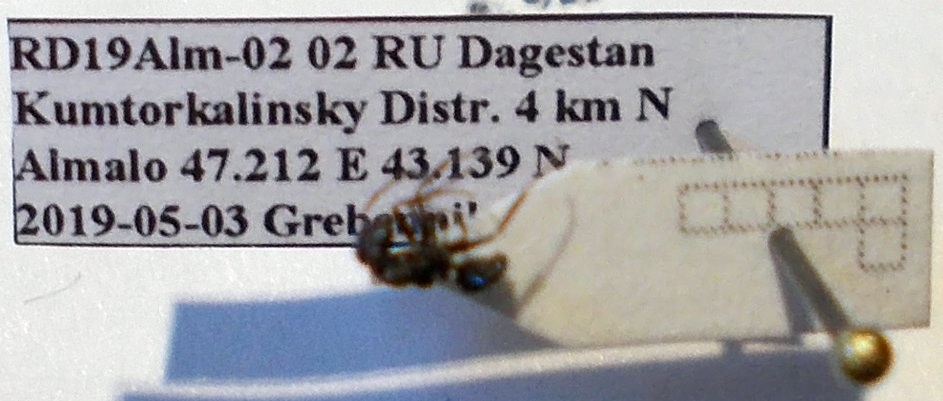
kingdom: Animalia
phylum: Arthropoda
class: Insecta
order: Hymenoptera
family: Formicidae
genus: Camponotus
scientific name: Camponotus piceus
